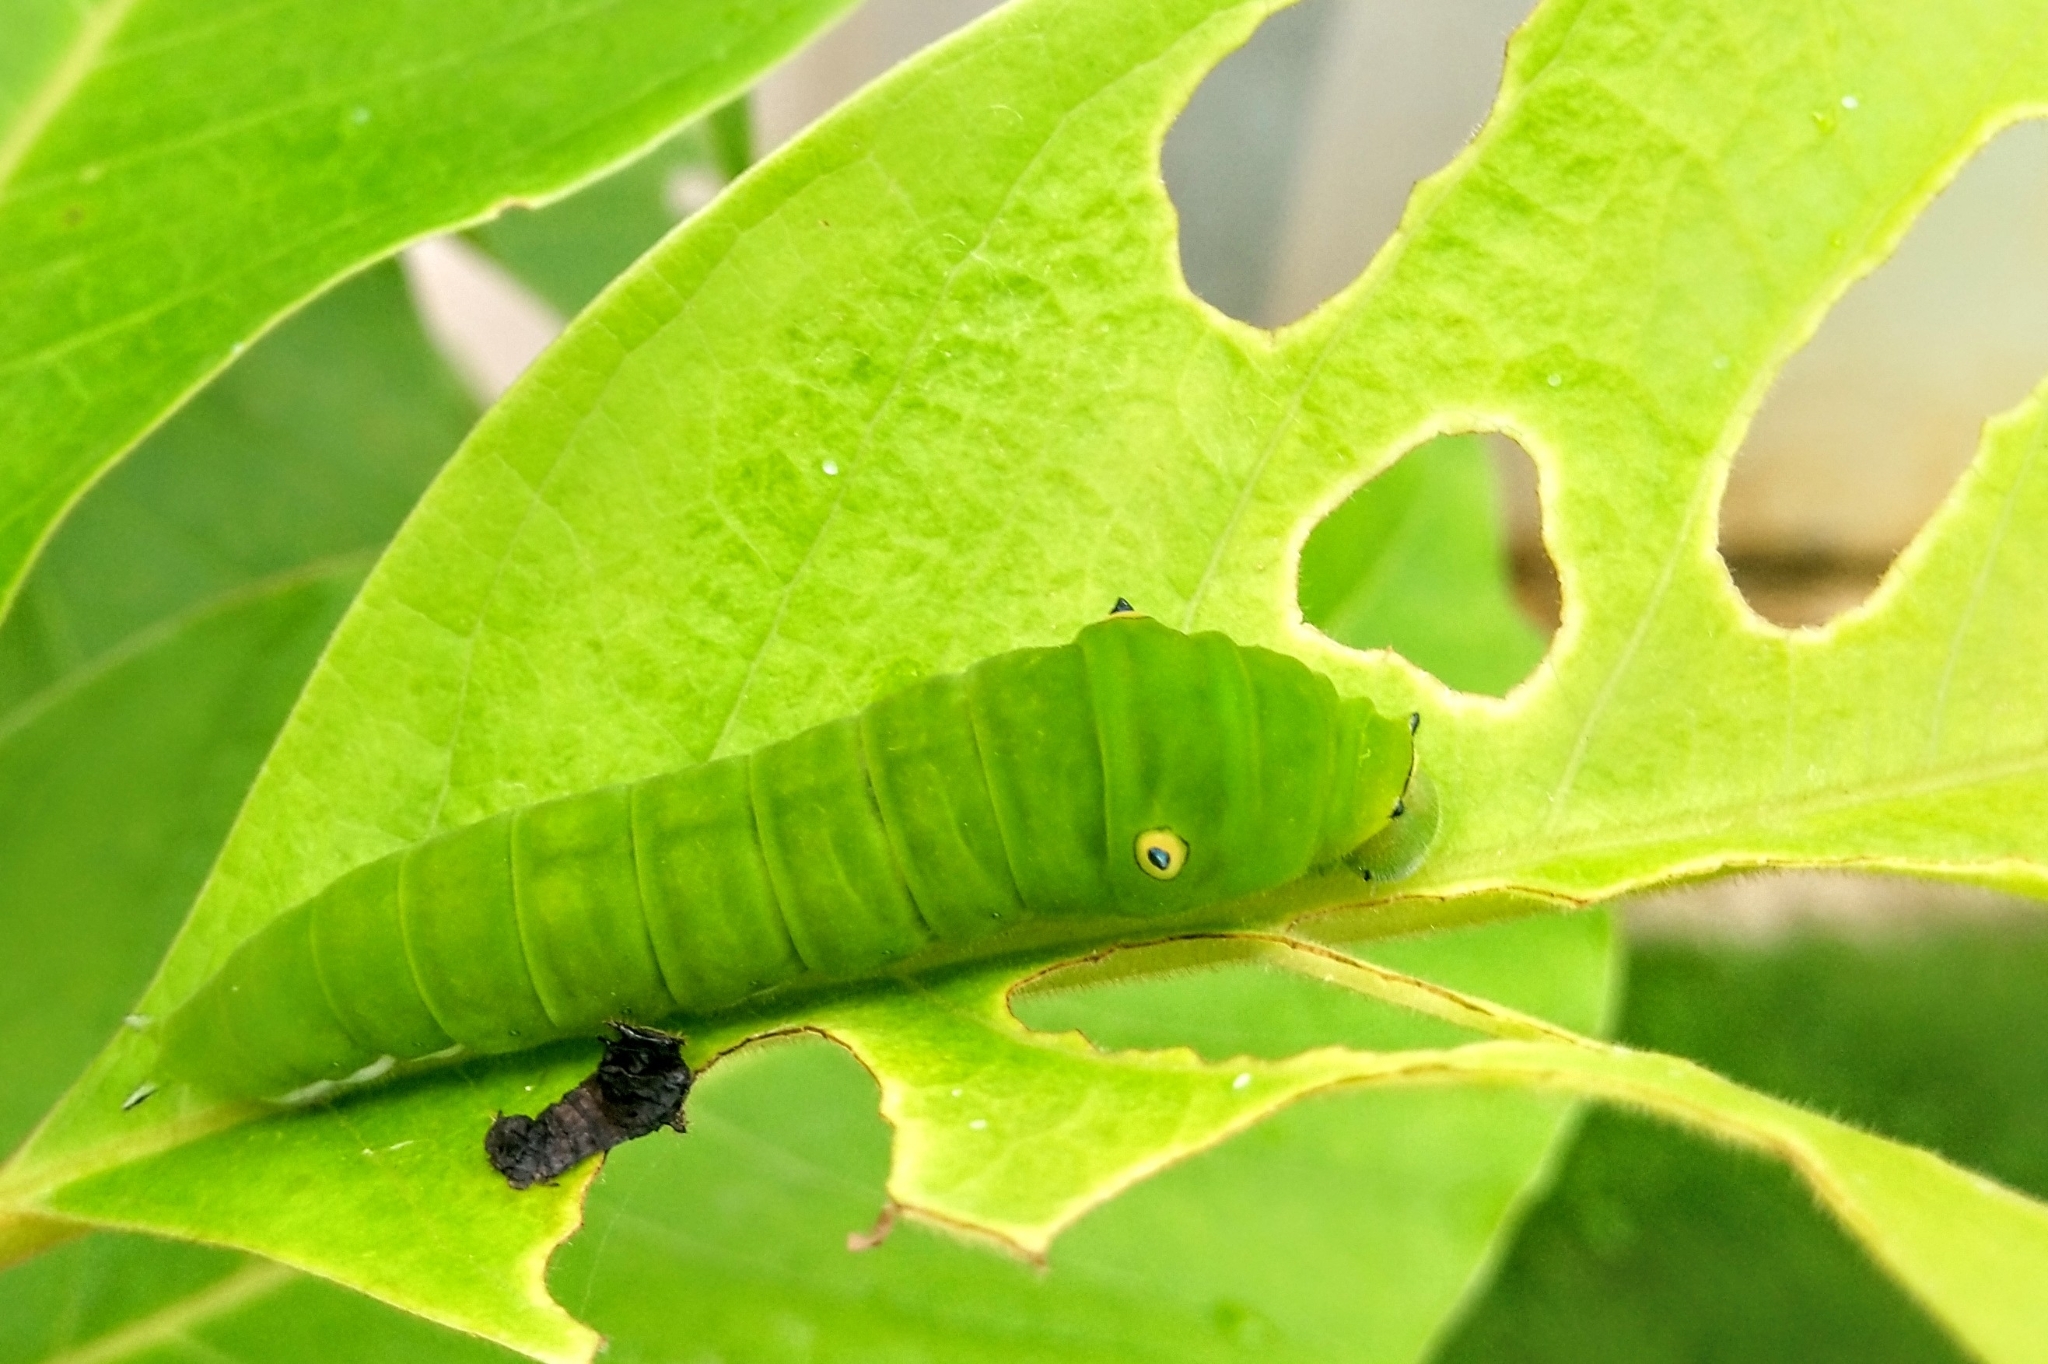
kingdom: Animalia
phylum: Arthropoda
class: Insecta
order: Lepidoptera
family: Papilionidae
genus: Graphium
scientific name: Graphium doson
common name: Common jay
